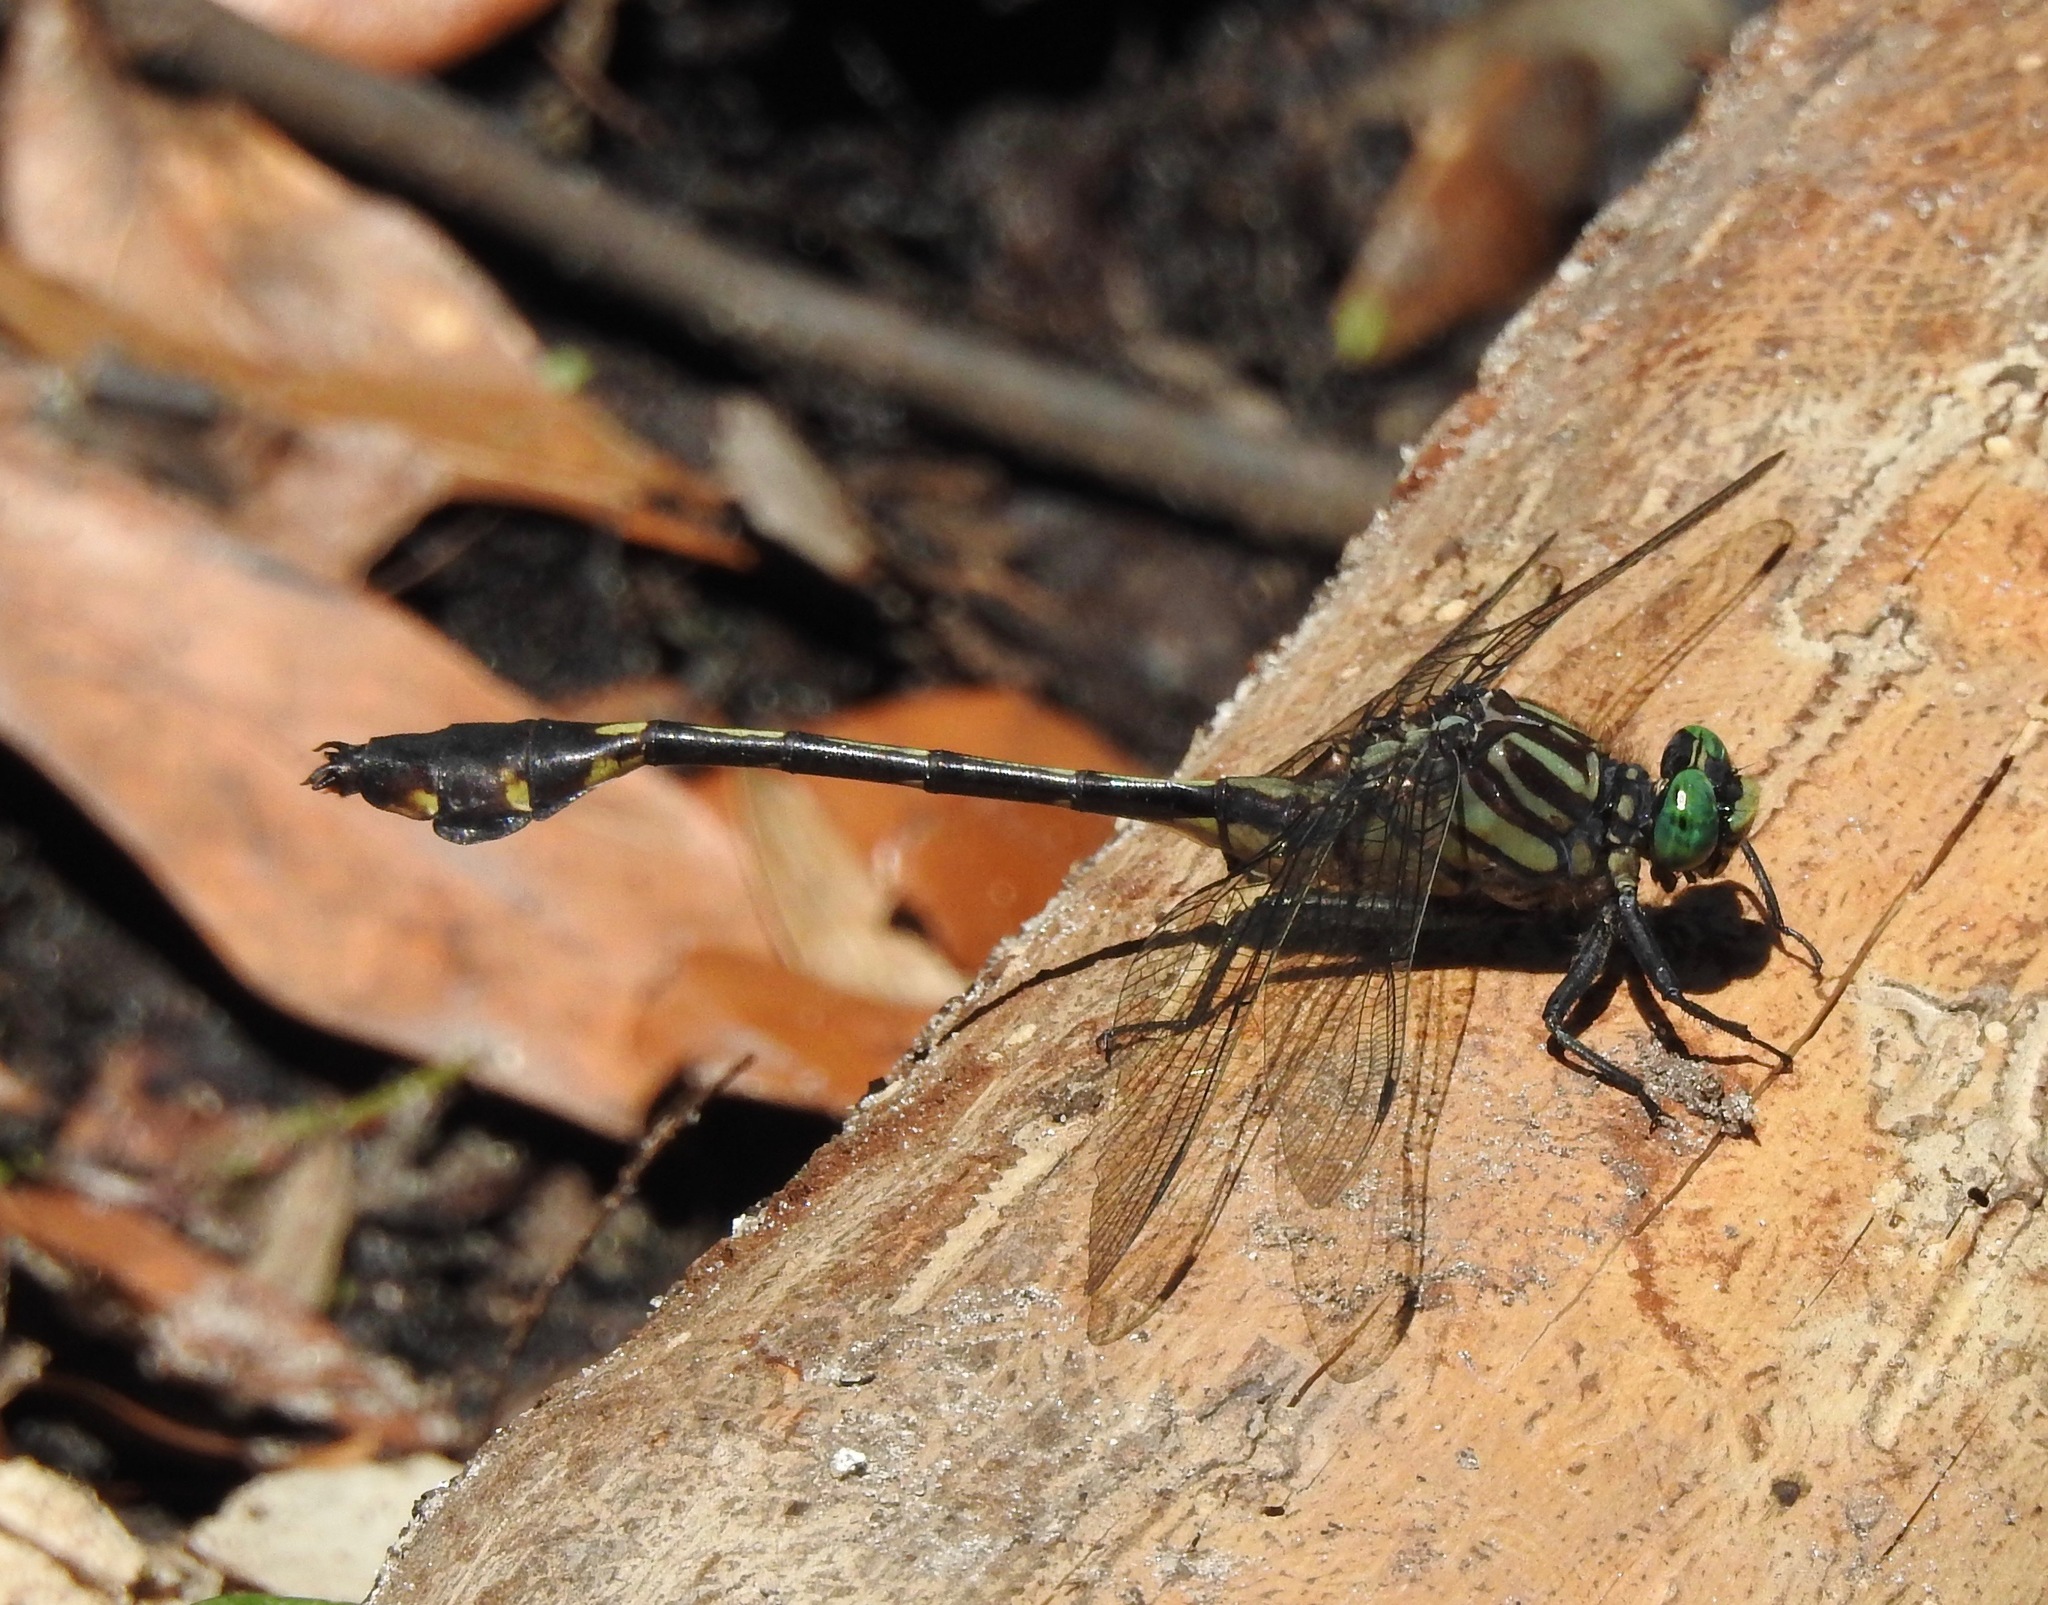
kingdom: Animalia
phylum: Arthropoda
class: Insecta
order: Odonata
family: Gomphidae
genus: Gomphurus
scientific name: Gomphurus dilatatus
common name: Blackwater clubtail
